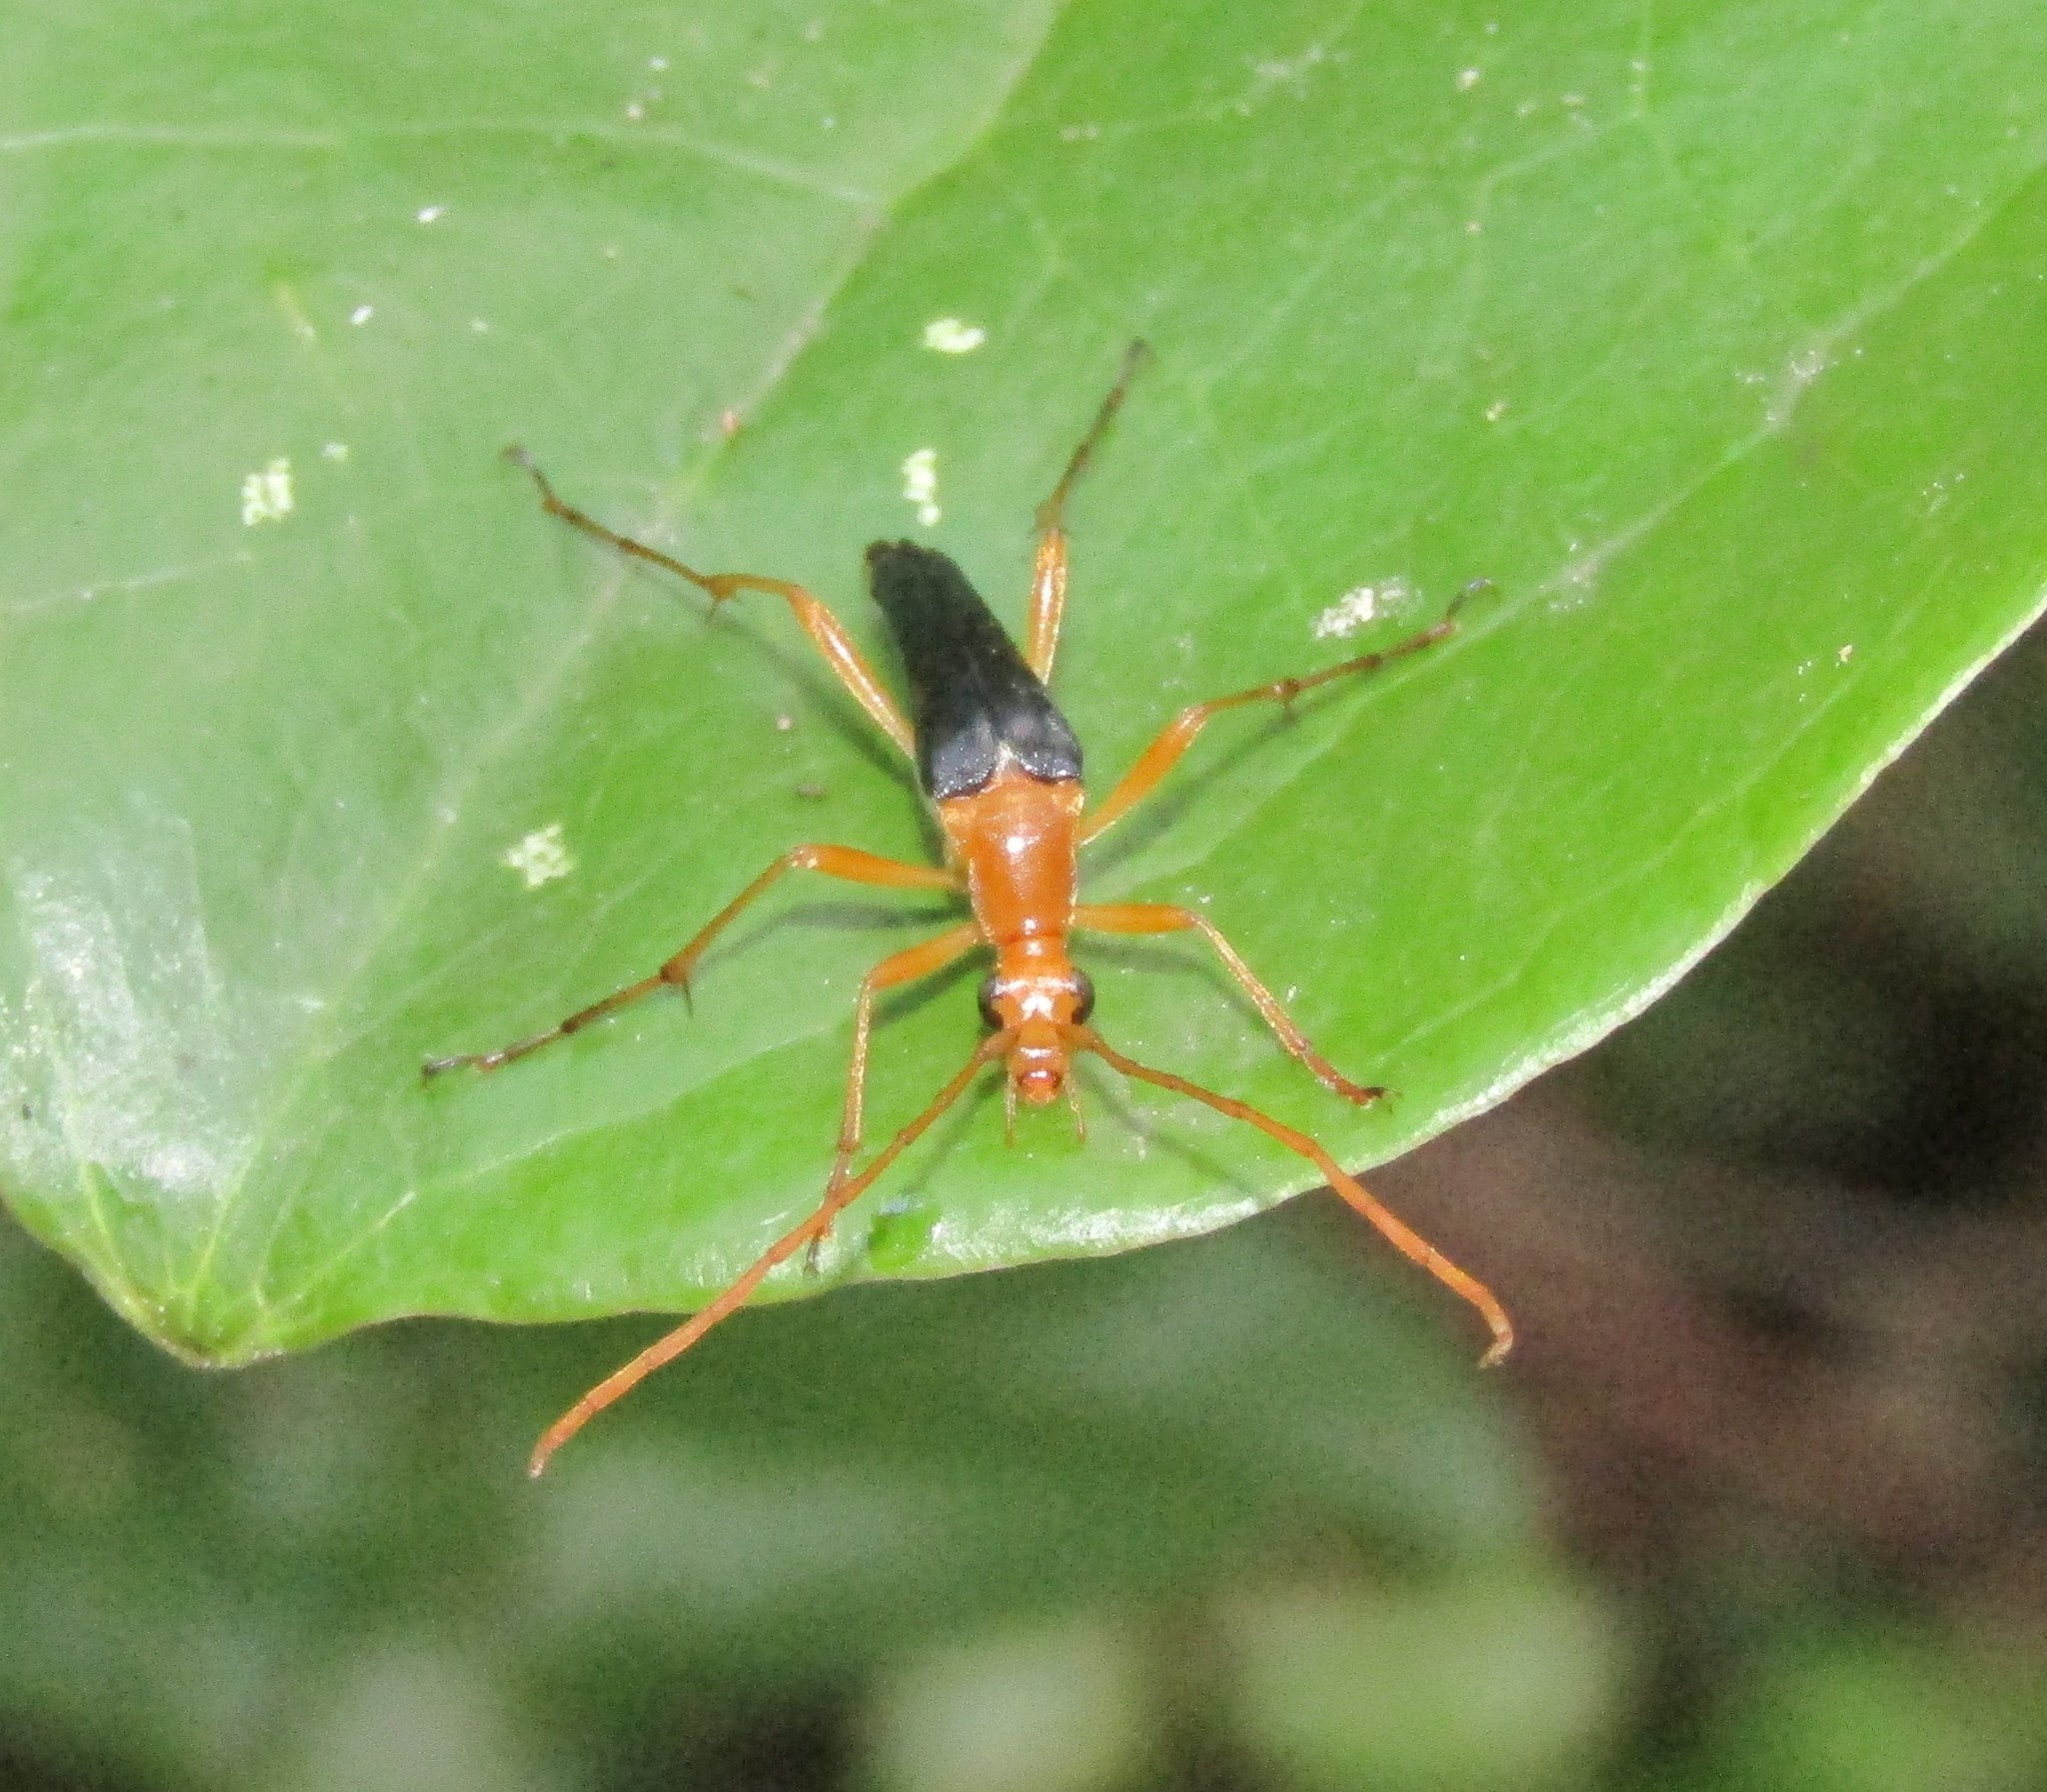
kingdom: Animalia
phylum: Arthropoda
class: Insecta
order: Coleoptera
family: Cerambycidae
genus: Strangalia
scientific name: Strangalia bicolor
